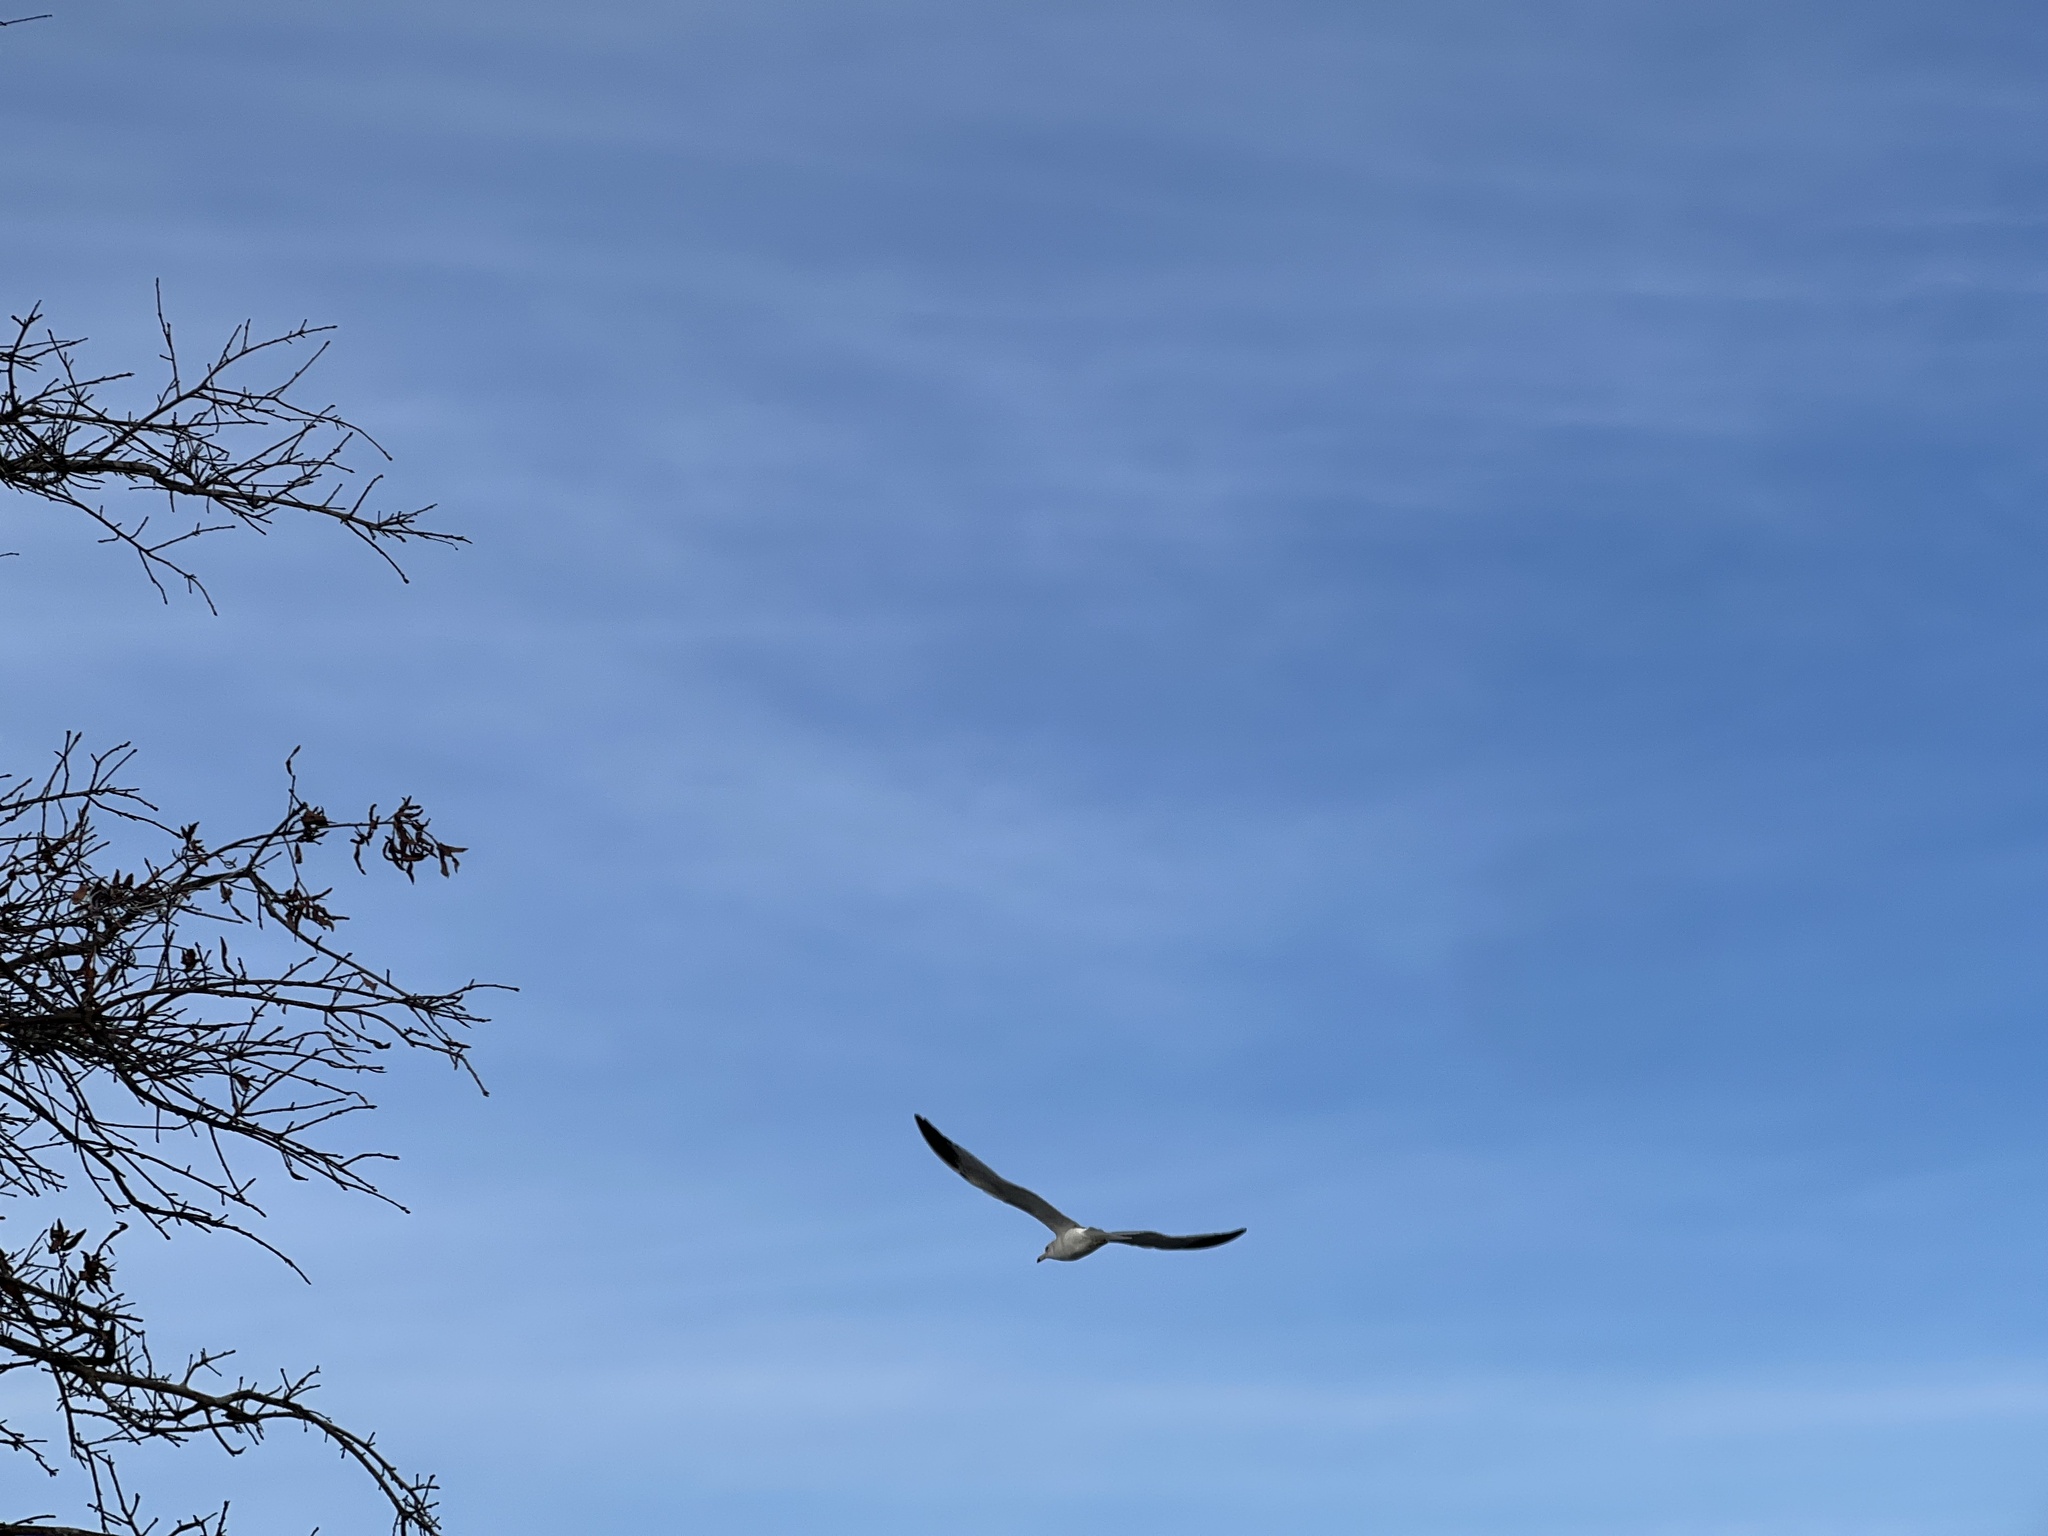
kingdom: Animalia
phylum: Chordata
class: Aves
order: Charadriiformes
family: Laridae
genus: Larus
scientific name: Larus delawarensis
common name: Ring-billed gull
